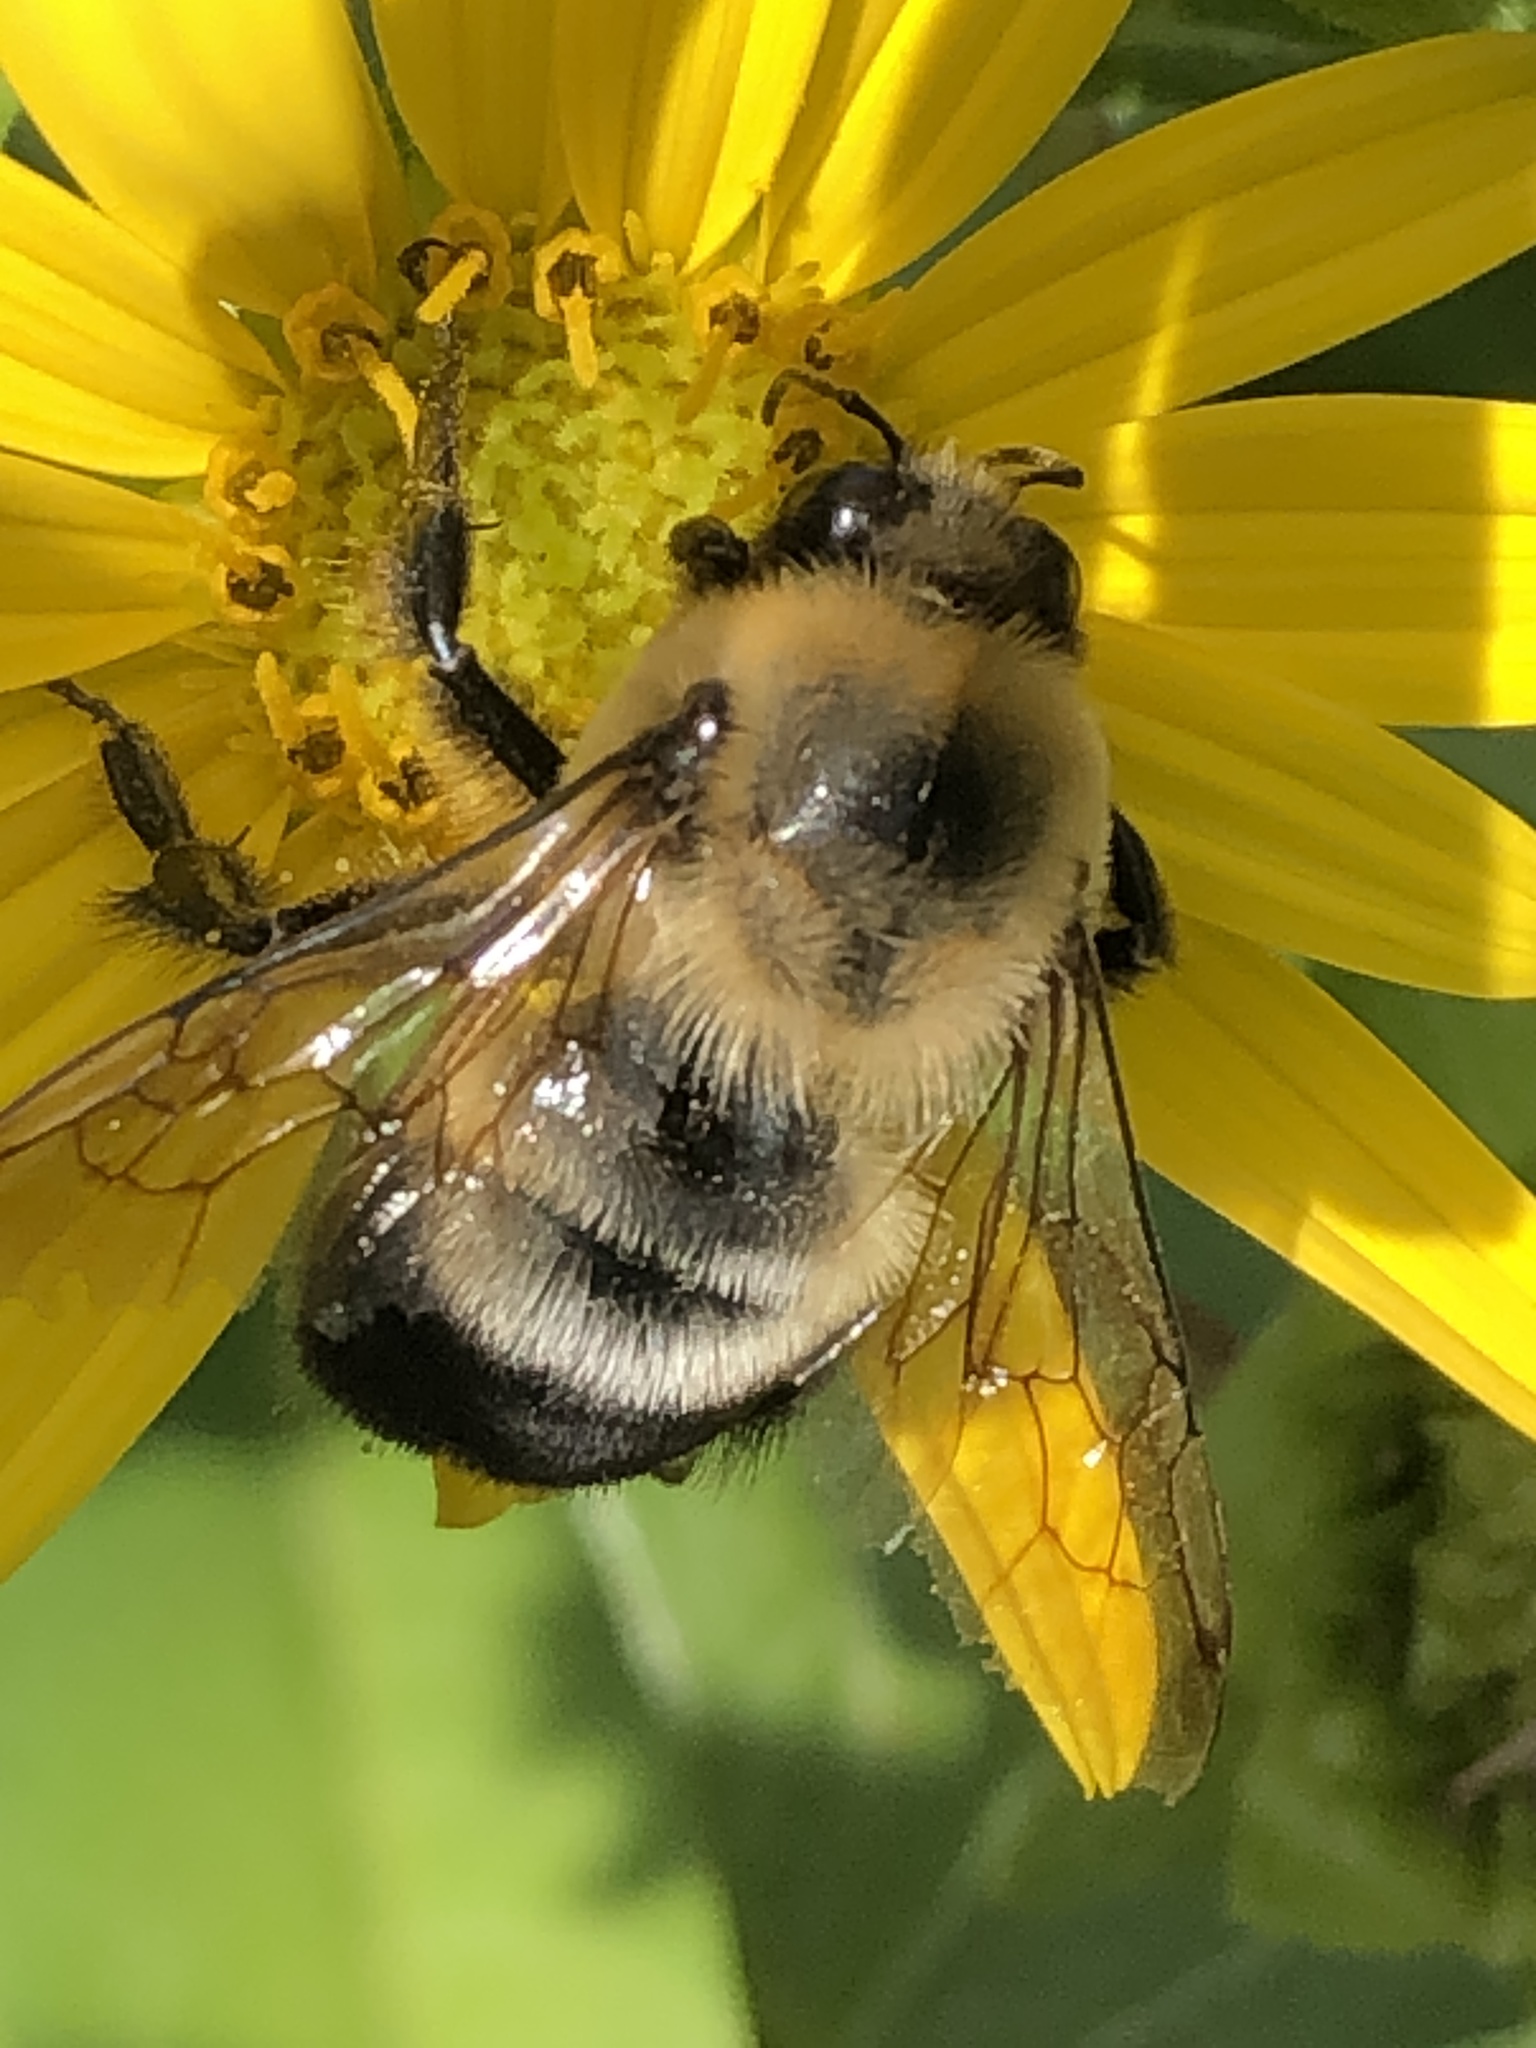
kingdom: Animalia
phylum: Arthropoda
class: Insecta
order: Hymenoptera
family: Apidae
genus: Bombus
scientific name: Bombus griseocollis
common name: Brown-belted bumble bee
